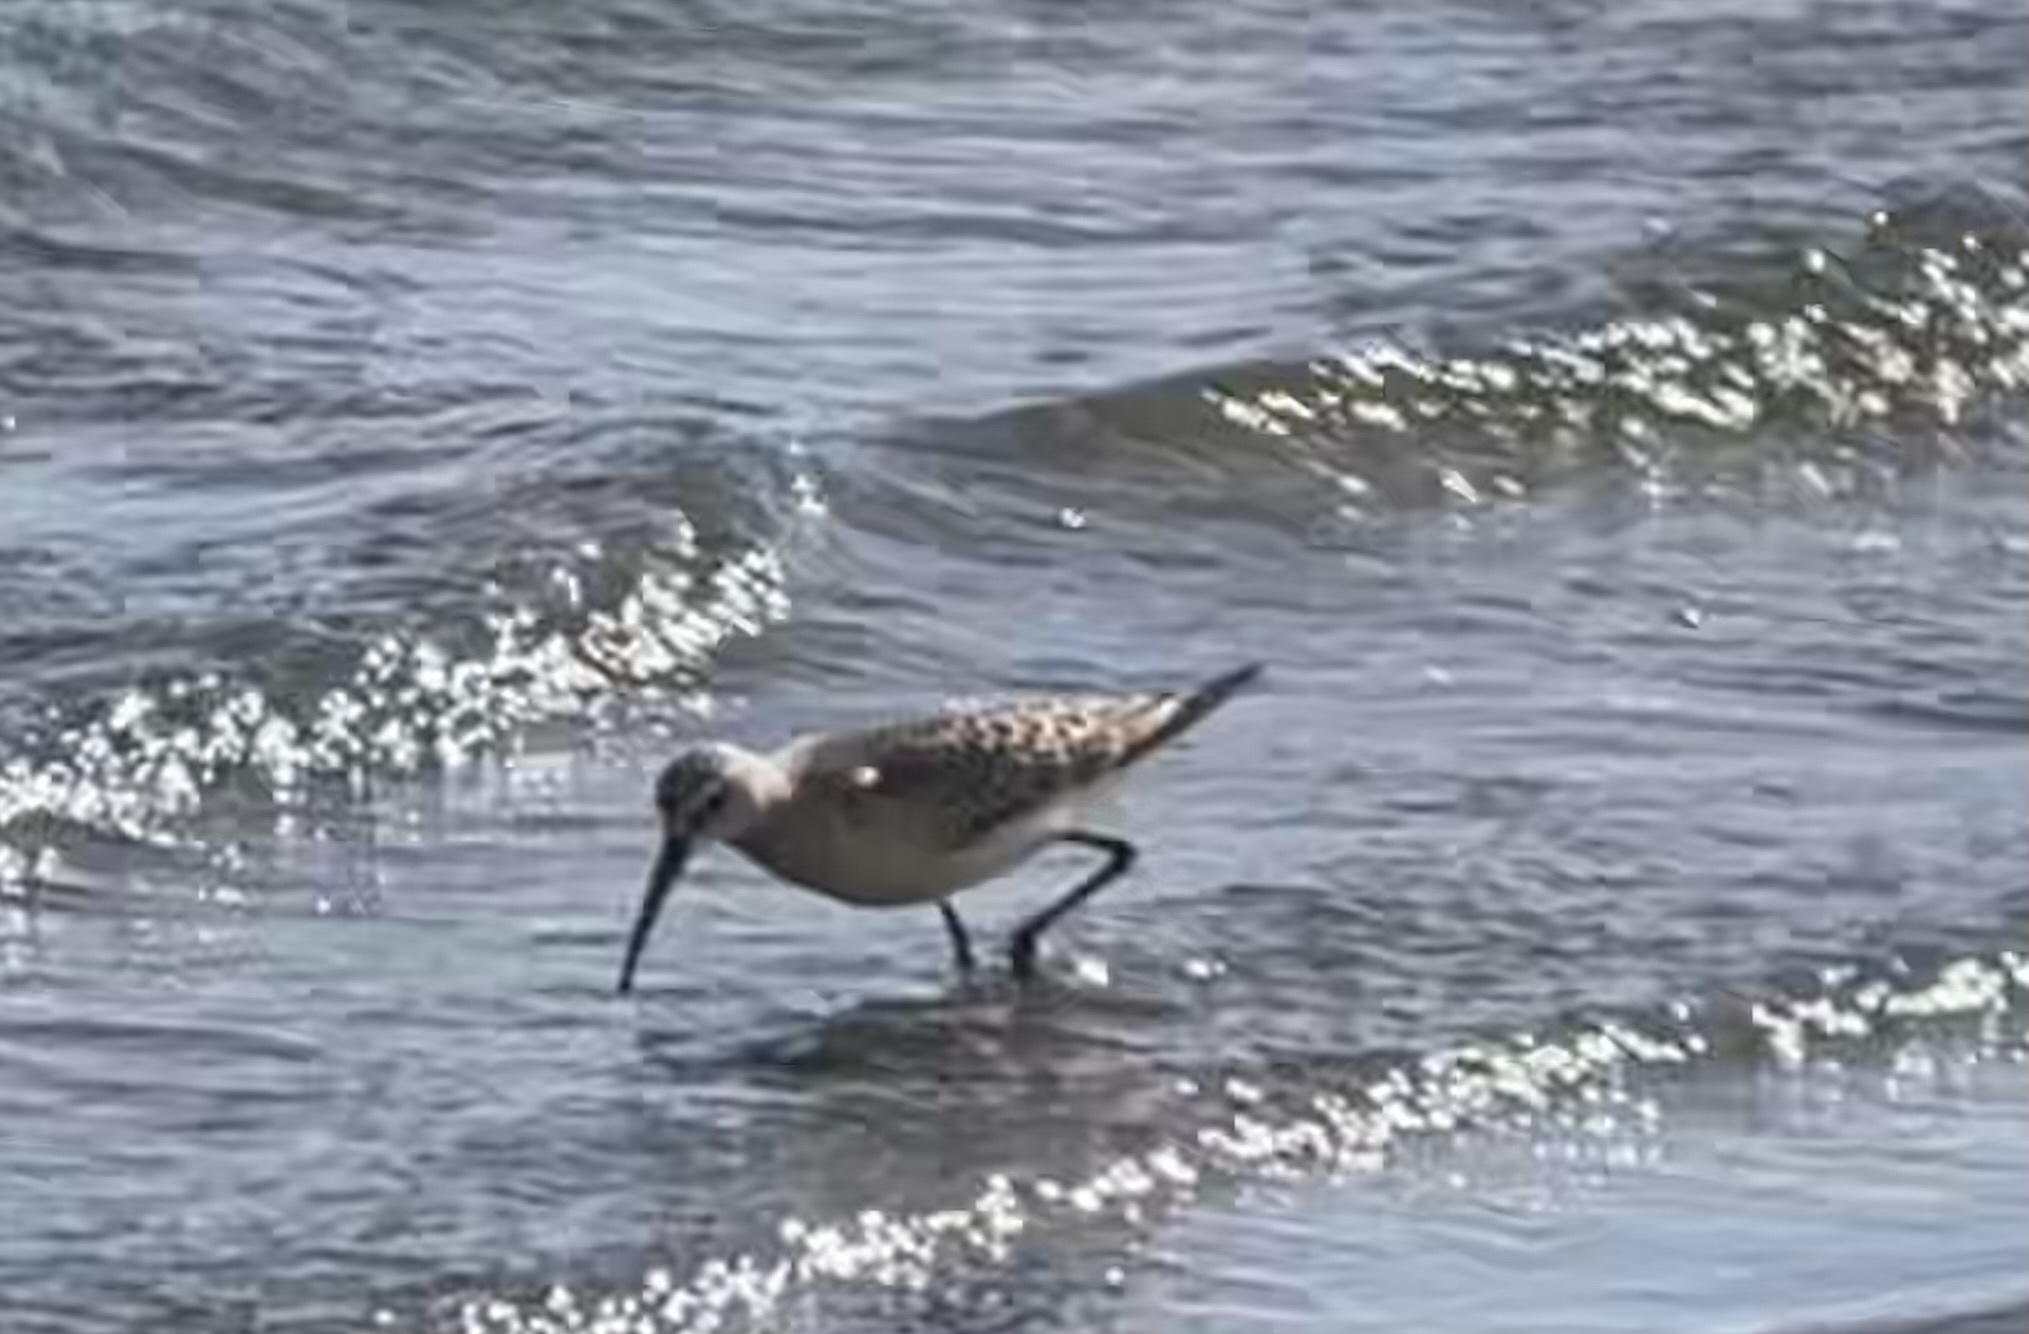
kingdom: Animalia
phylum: Chordata
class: Aves
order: Charadriiformes
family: Scolopacidae
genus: Calidris
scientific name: Calidris ferruginea
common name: Curlew sandpiper
